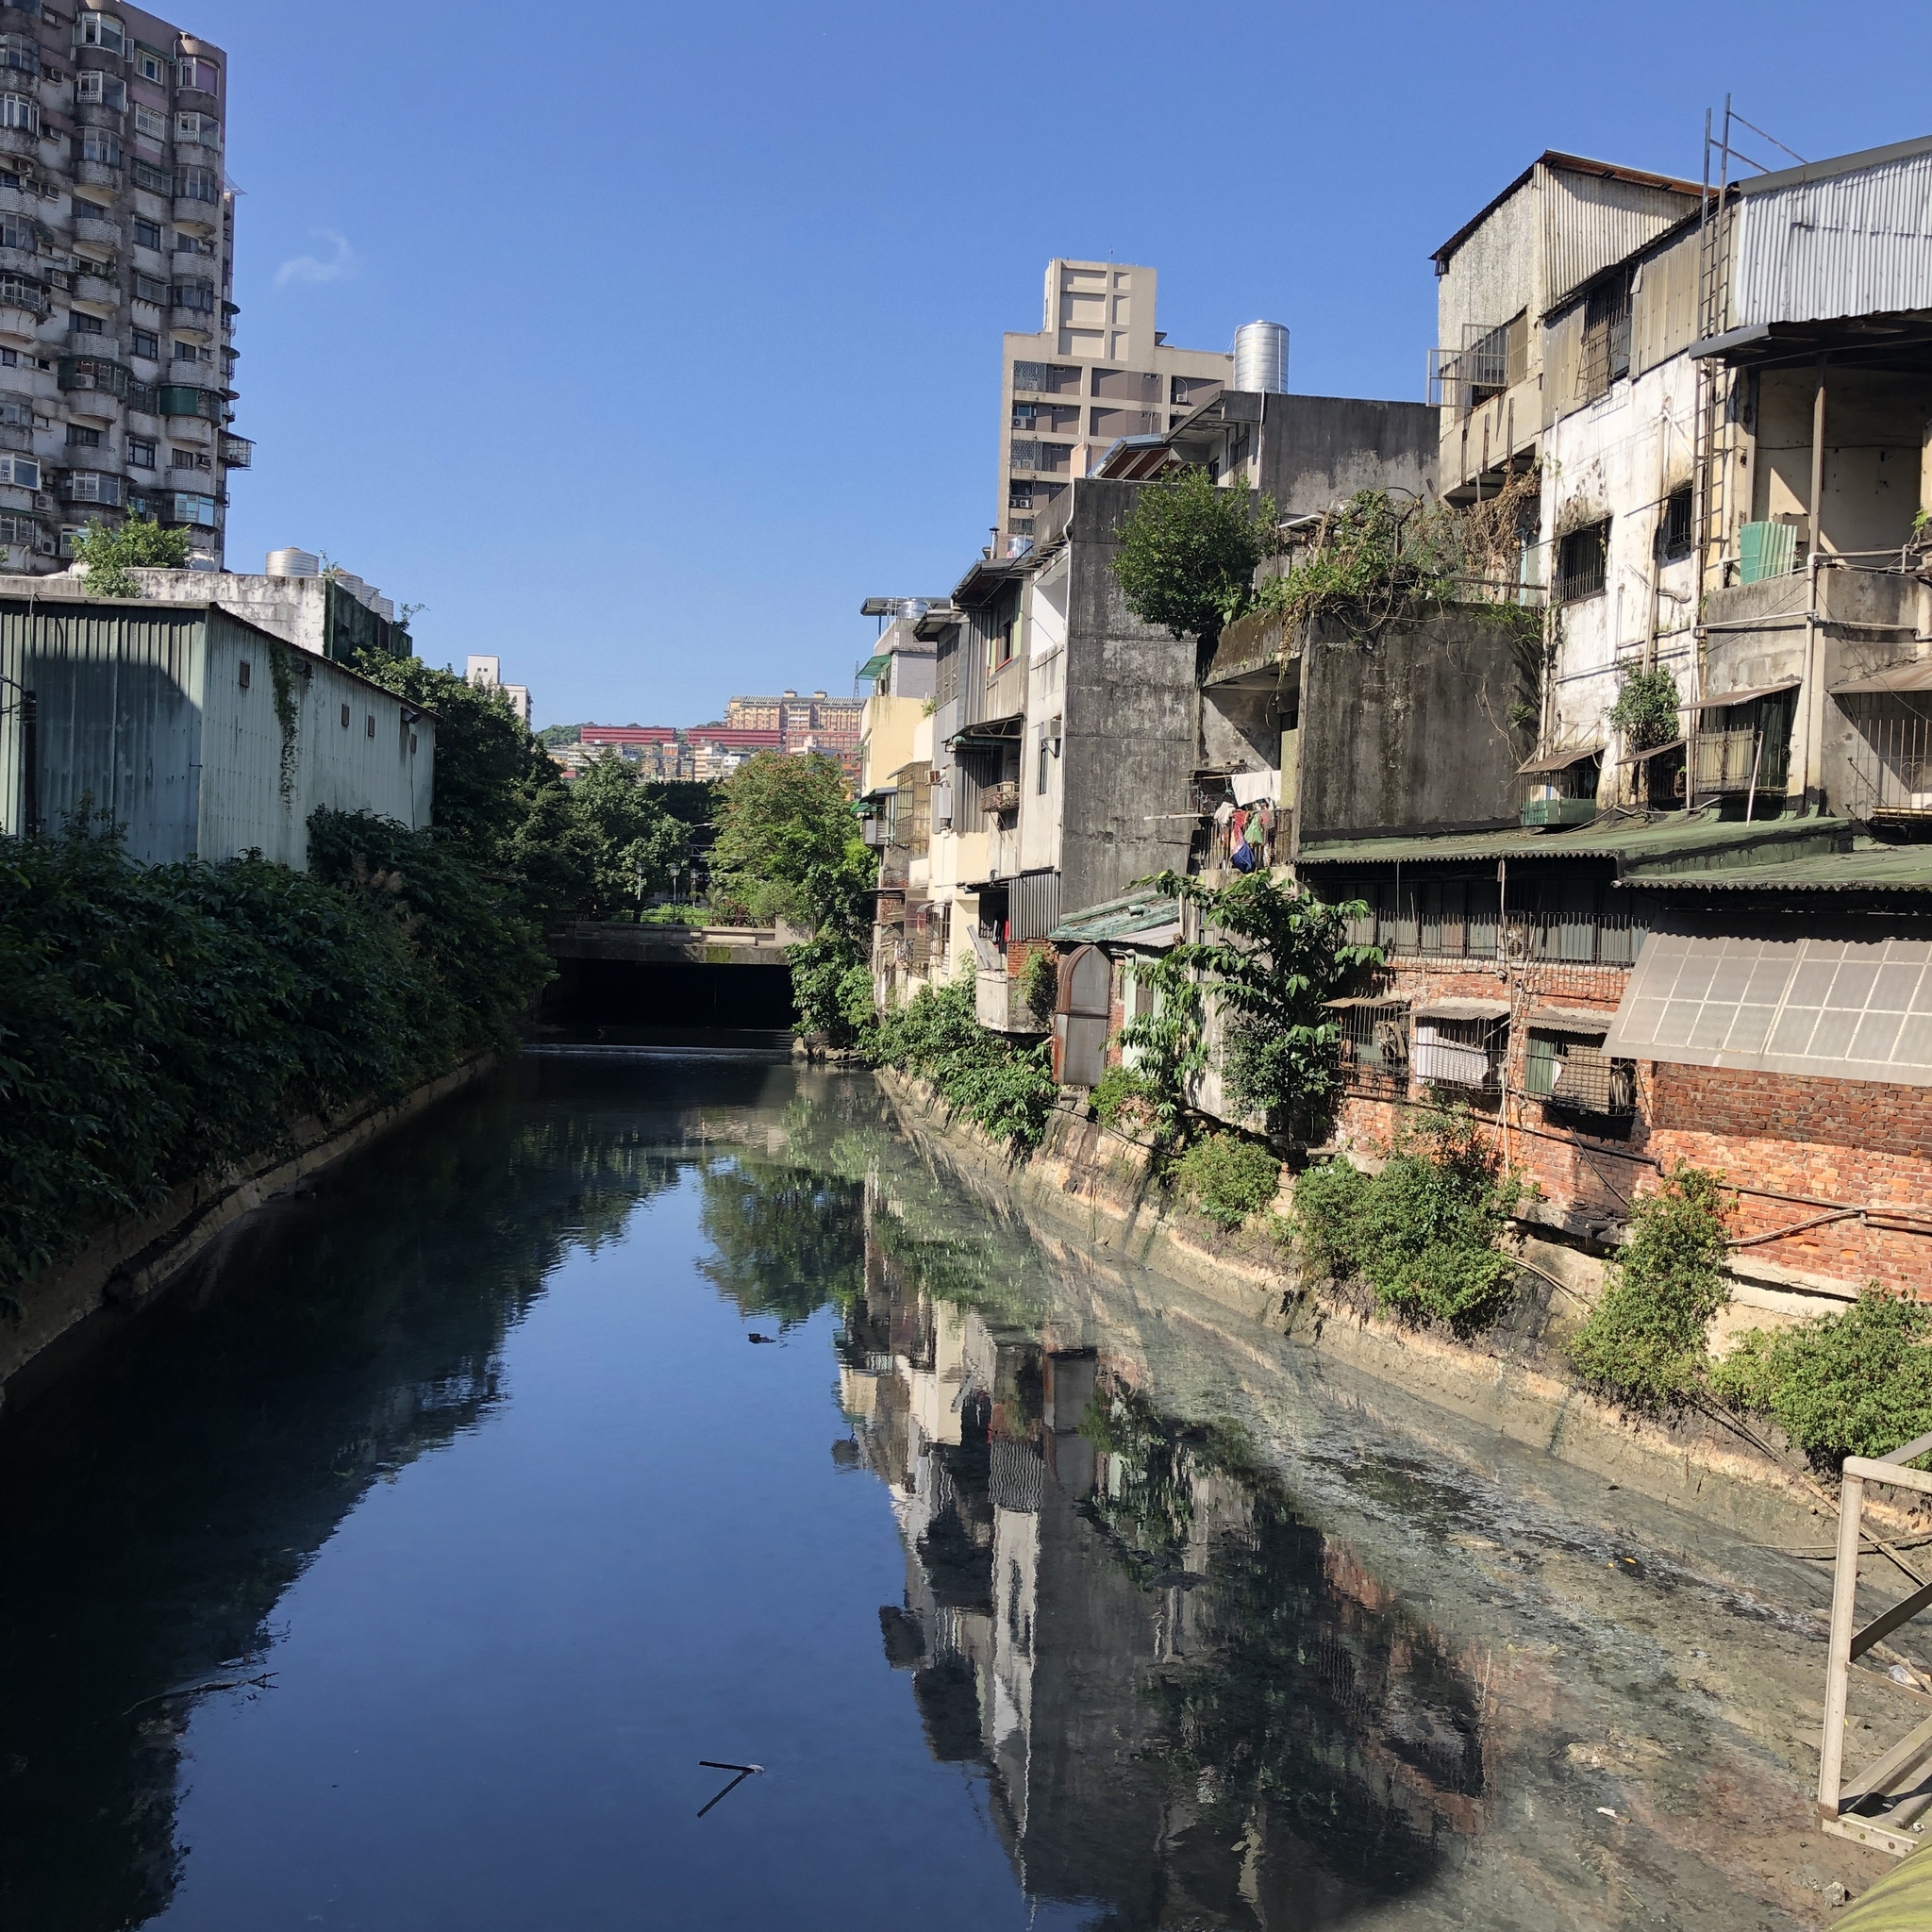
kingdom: Animalia
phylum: Chordata
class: Aves
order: Pelecaniformes
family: Ardeidae
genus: Nycticorax
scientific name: Nycticorax nycticorax
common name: Black-crowned night heron
